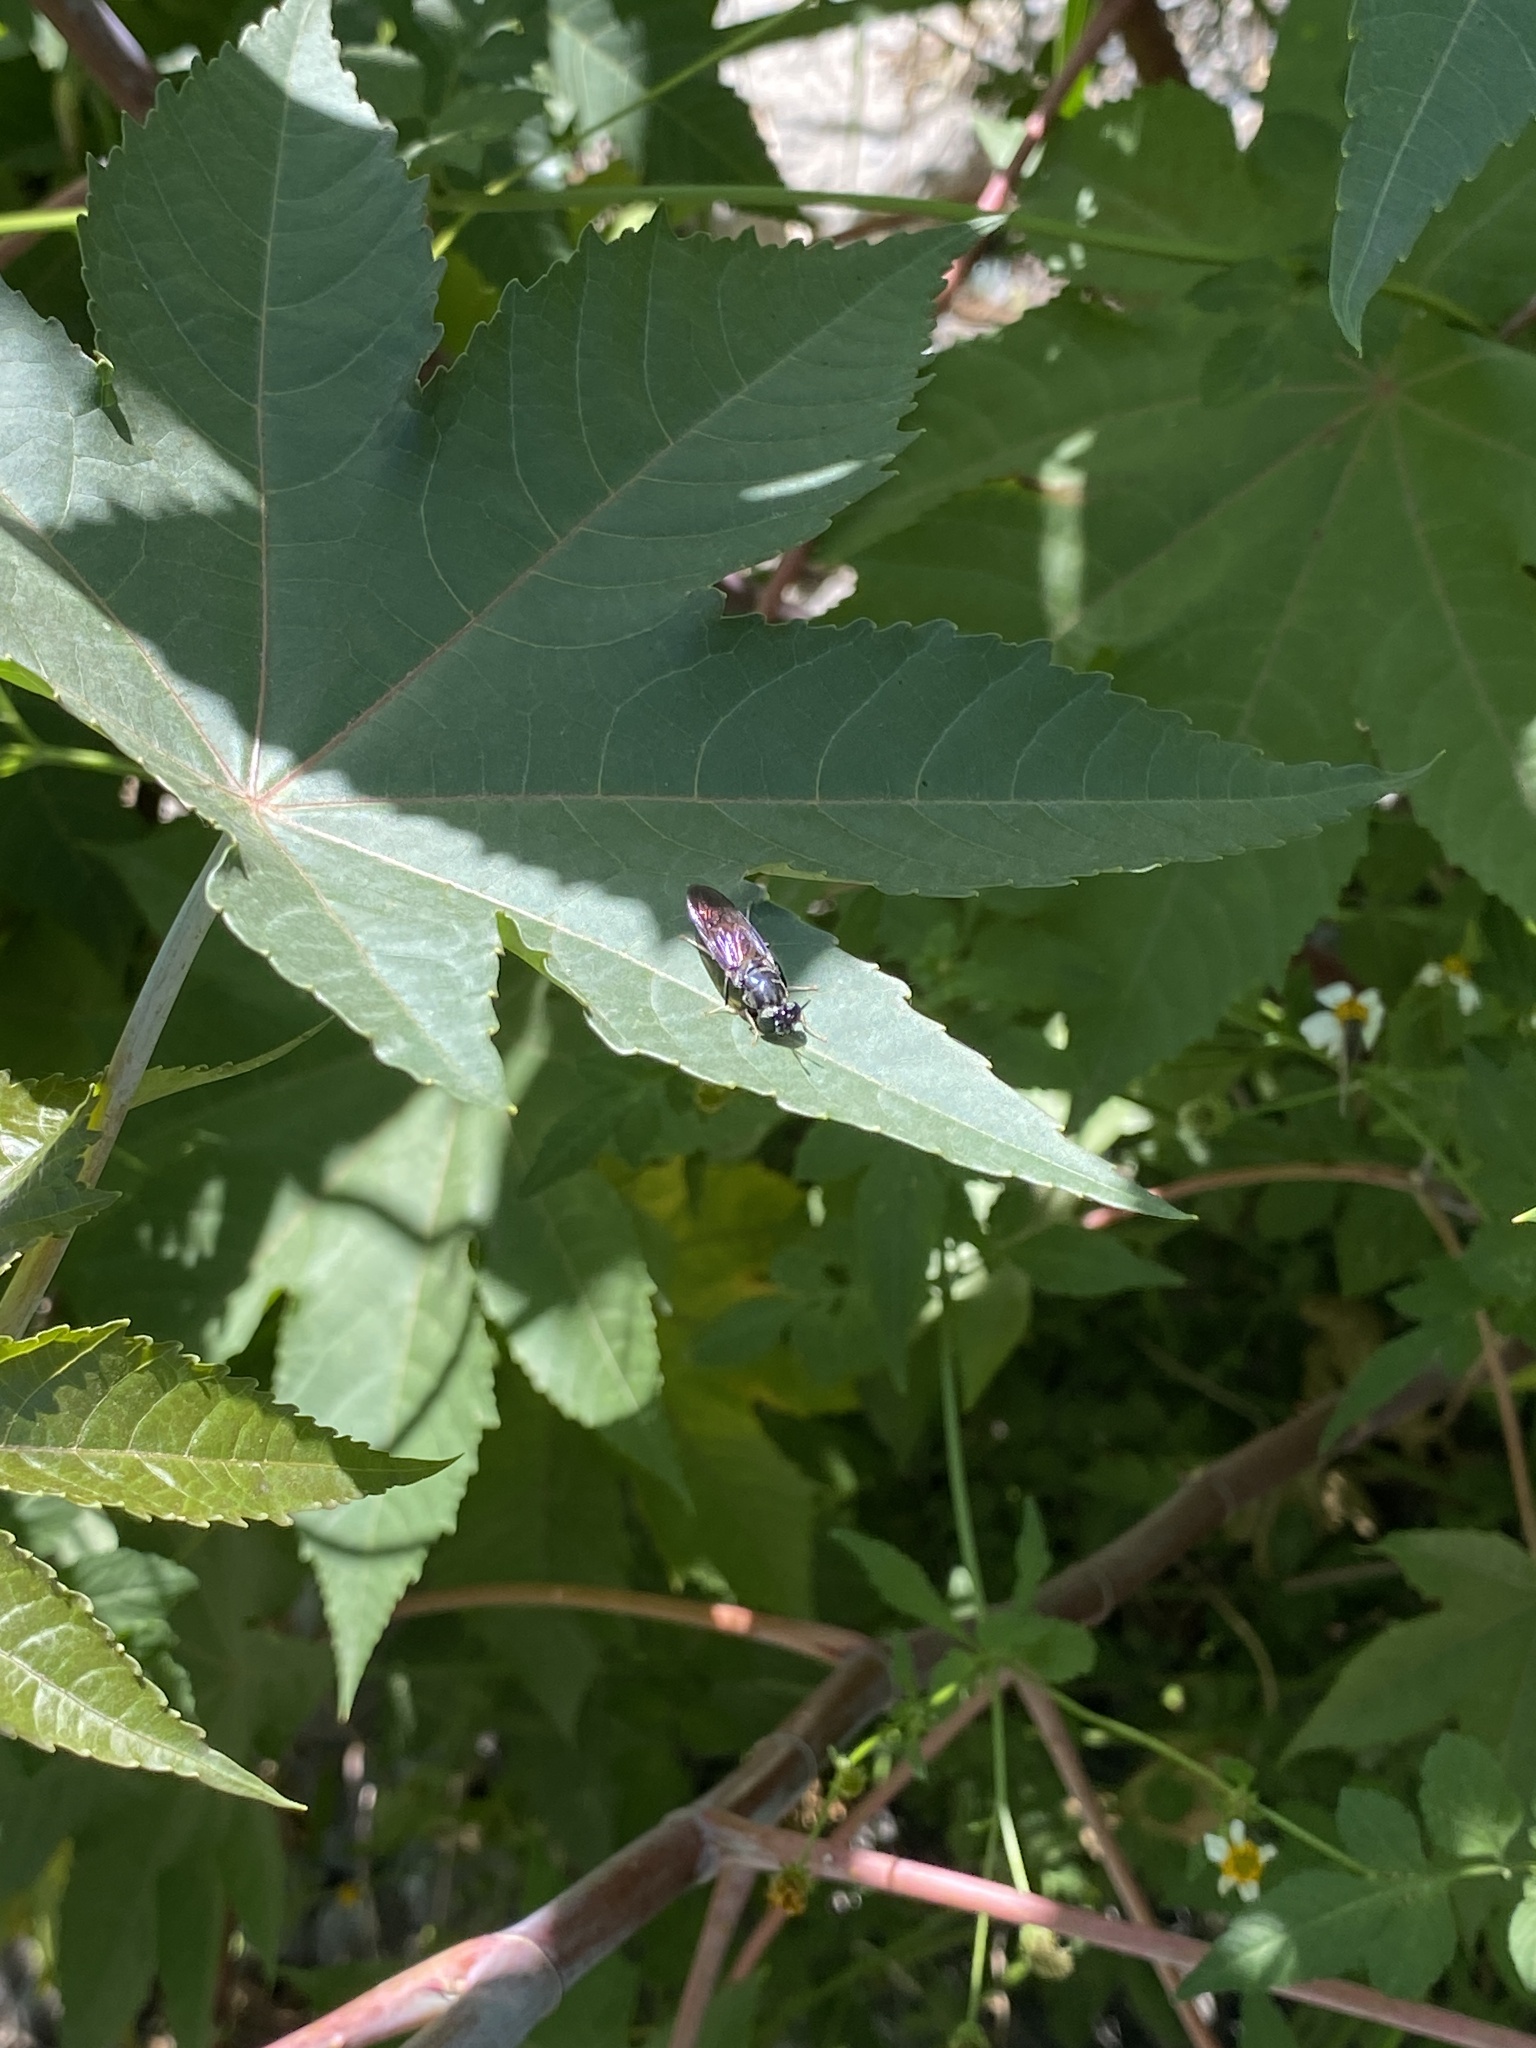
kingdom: Animalia
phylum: Arthropoda
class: Insecta
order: Diptera
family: Stratiomyidae
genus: Hermetia
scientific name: Hermetia illucens
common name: Black soldier fly
